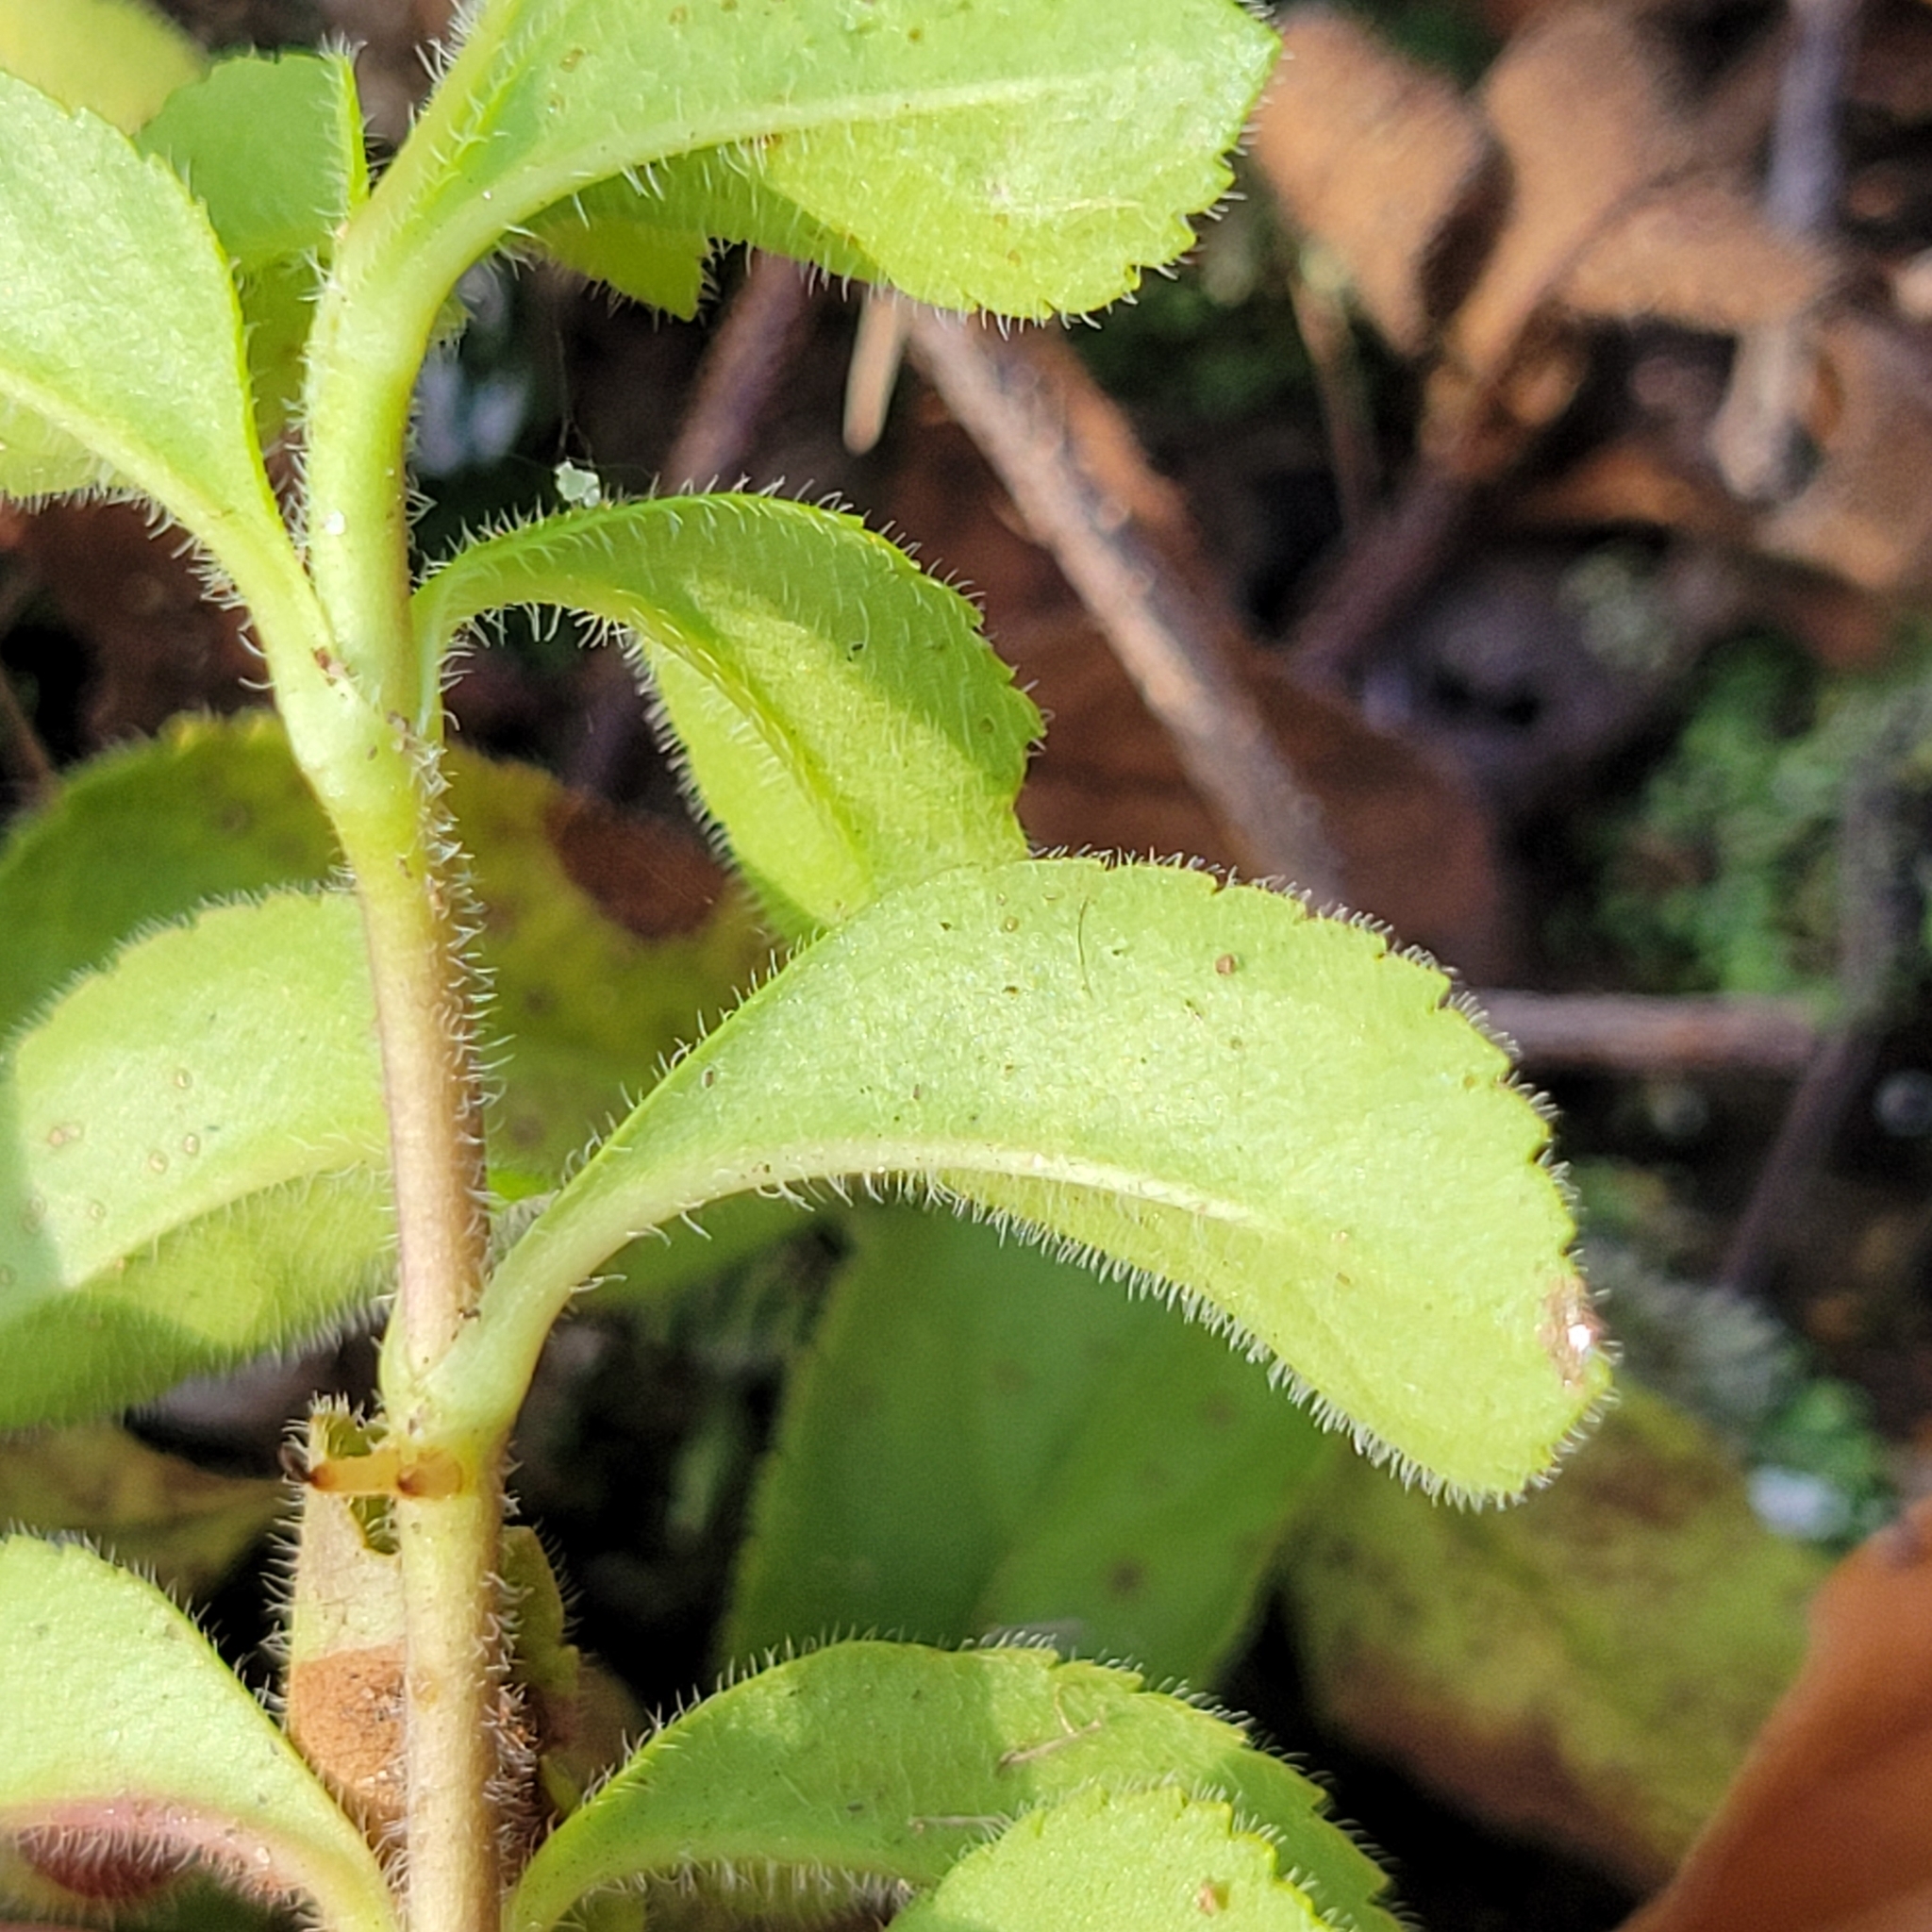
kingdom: Plantae
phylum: Tracheophyta
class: Magnoliopsida
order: Lamiales
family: Plantaginaceae
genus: Veronica
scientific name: Veronica officinalis
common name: Common speedwell
